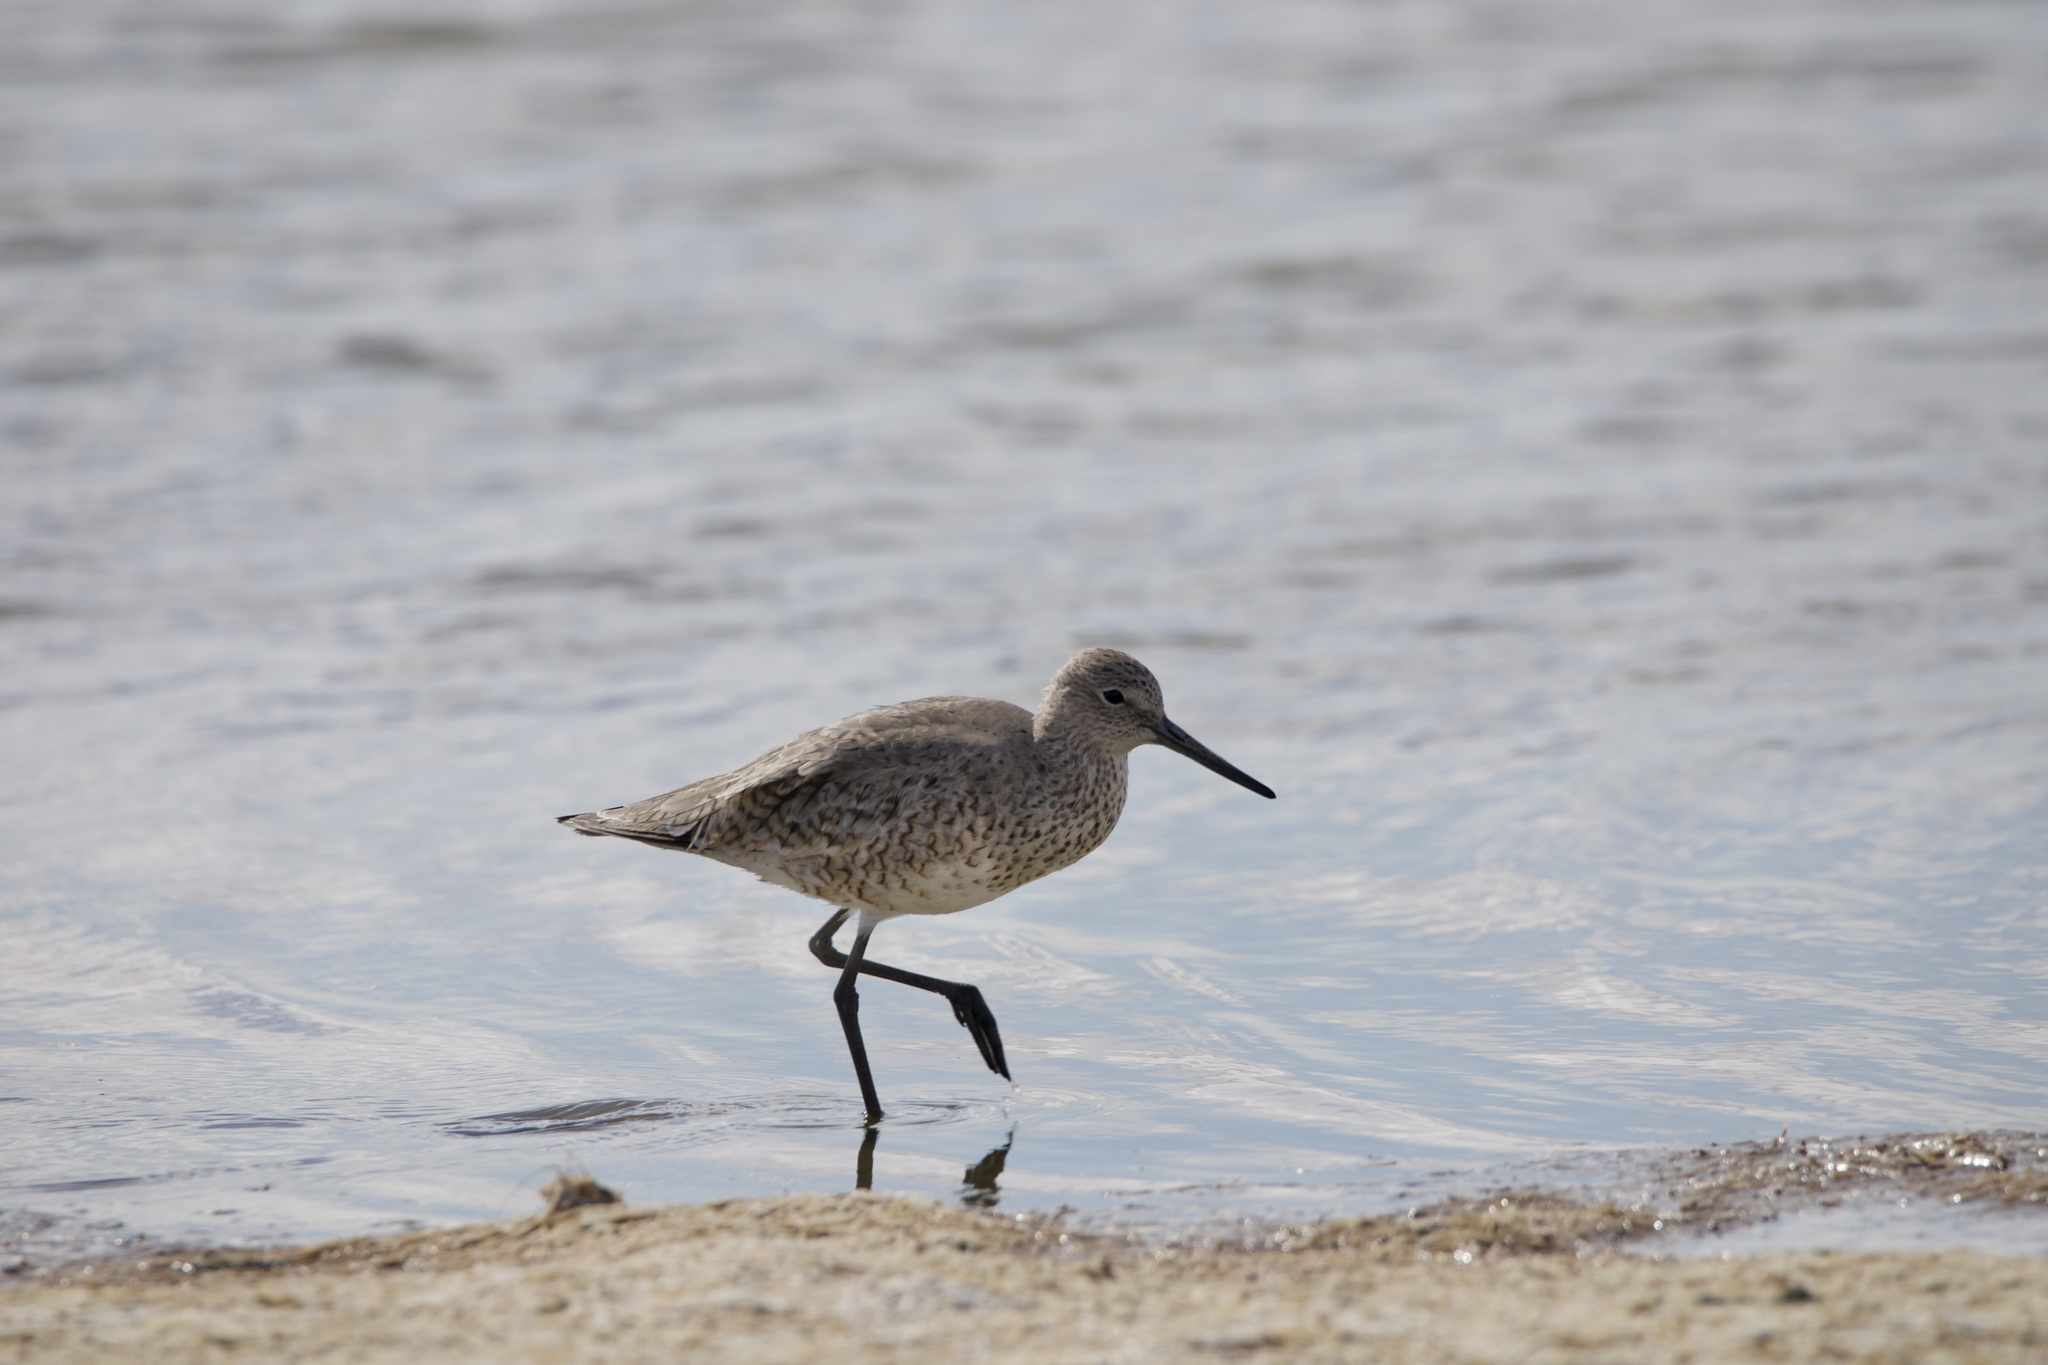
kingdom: Animalia
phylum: Chordata
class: Aves
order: Charadriiformes
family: Scolopacidae
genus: Tringa
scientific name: Tringa semipalmata
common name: Willet
